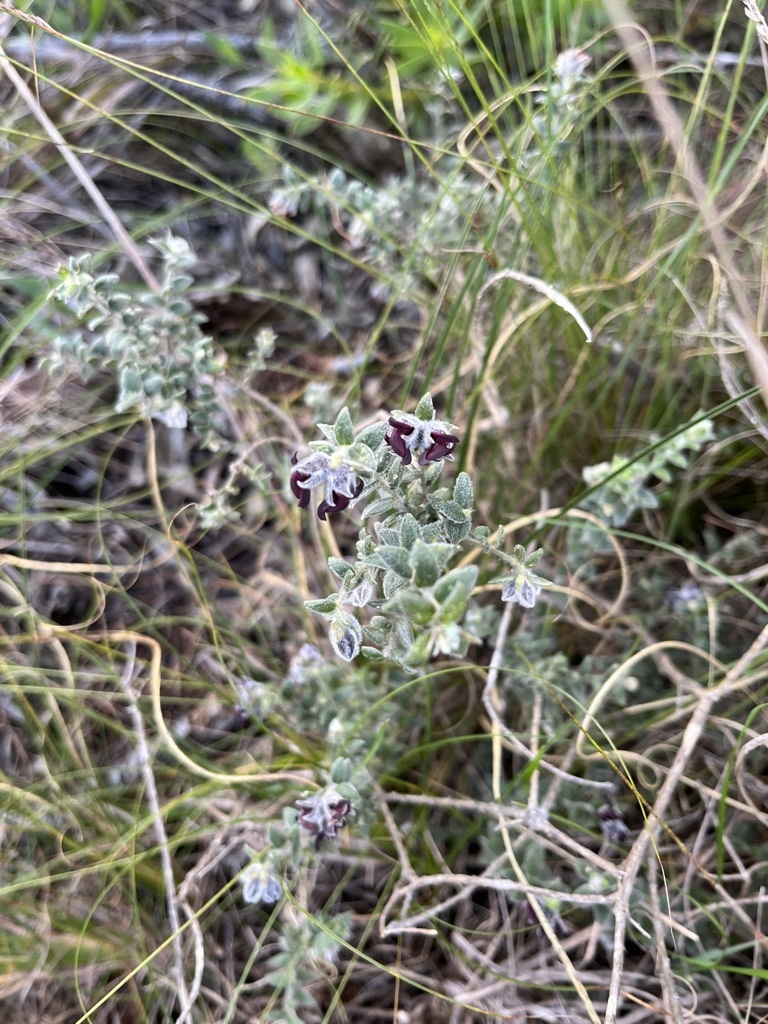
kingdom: Plantae
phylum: Tracheophyta
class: Magnoliopsida
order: Fabales
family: Fabaceae
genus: Amphithalea
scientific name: Amphithalea rostrata
